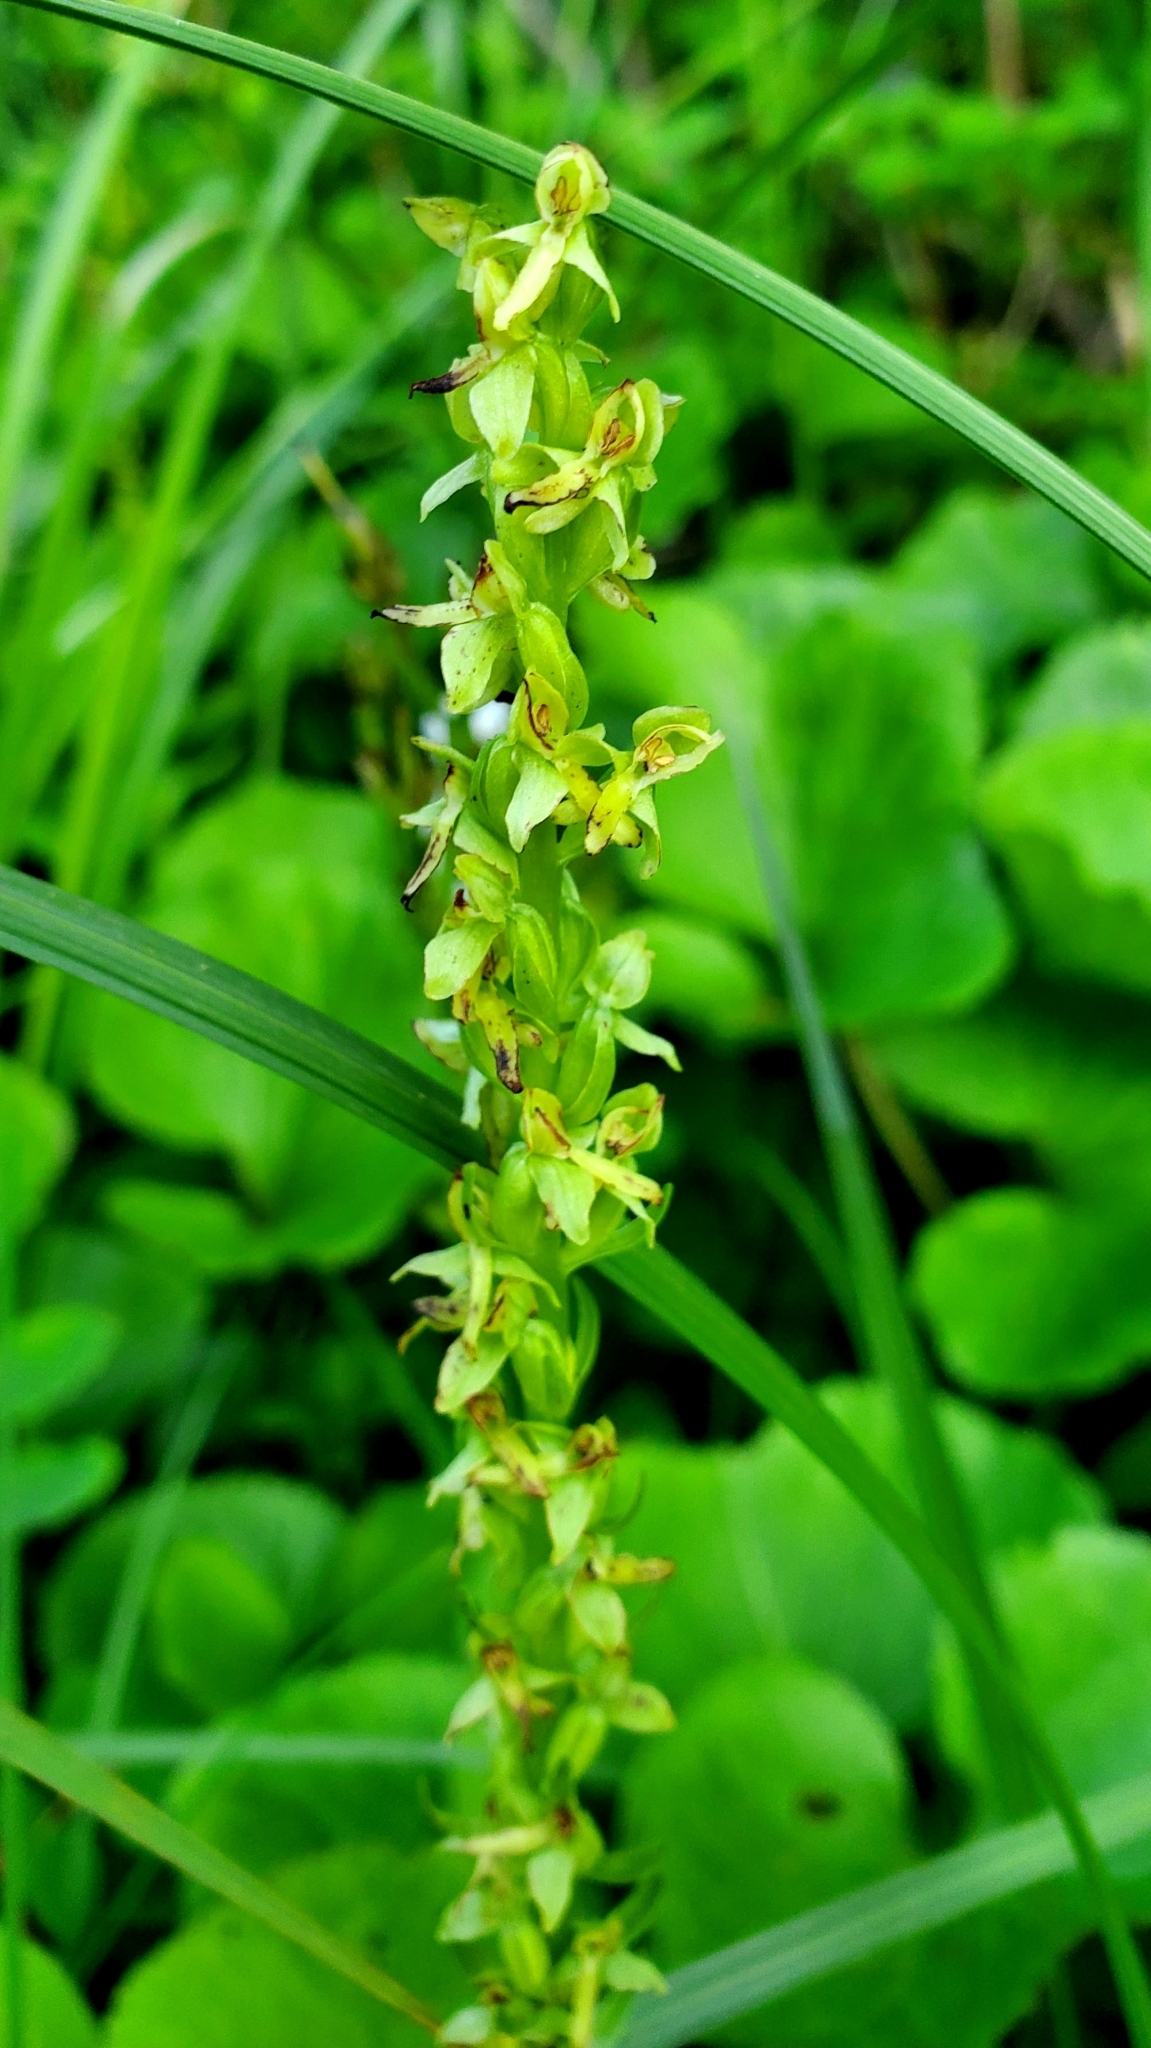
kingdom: Plantae
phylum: Tracheophyta
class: Liliopsida
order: Asparagales
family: Orchidaceae
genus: Platanthera
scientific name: Platanthera stricta
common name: Slender bog orchid
